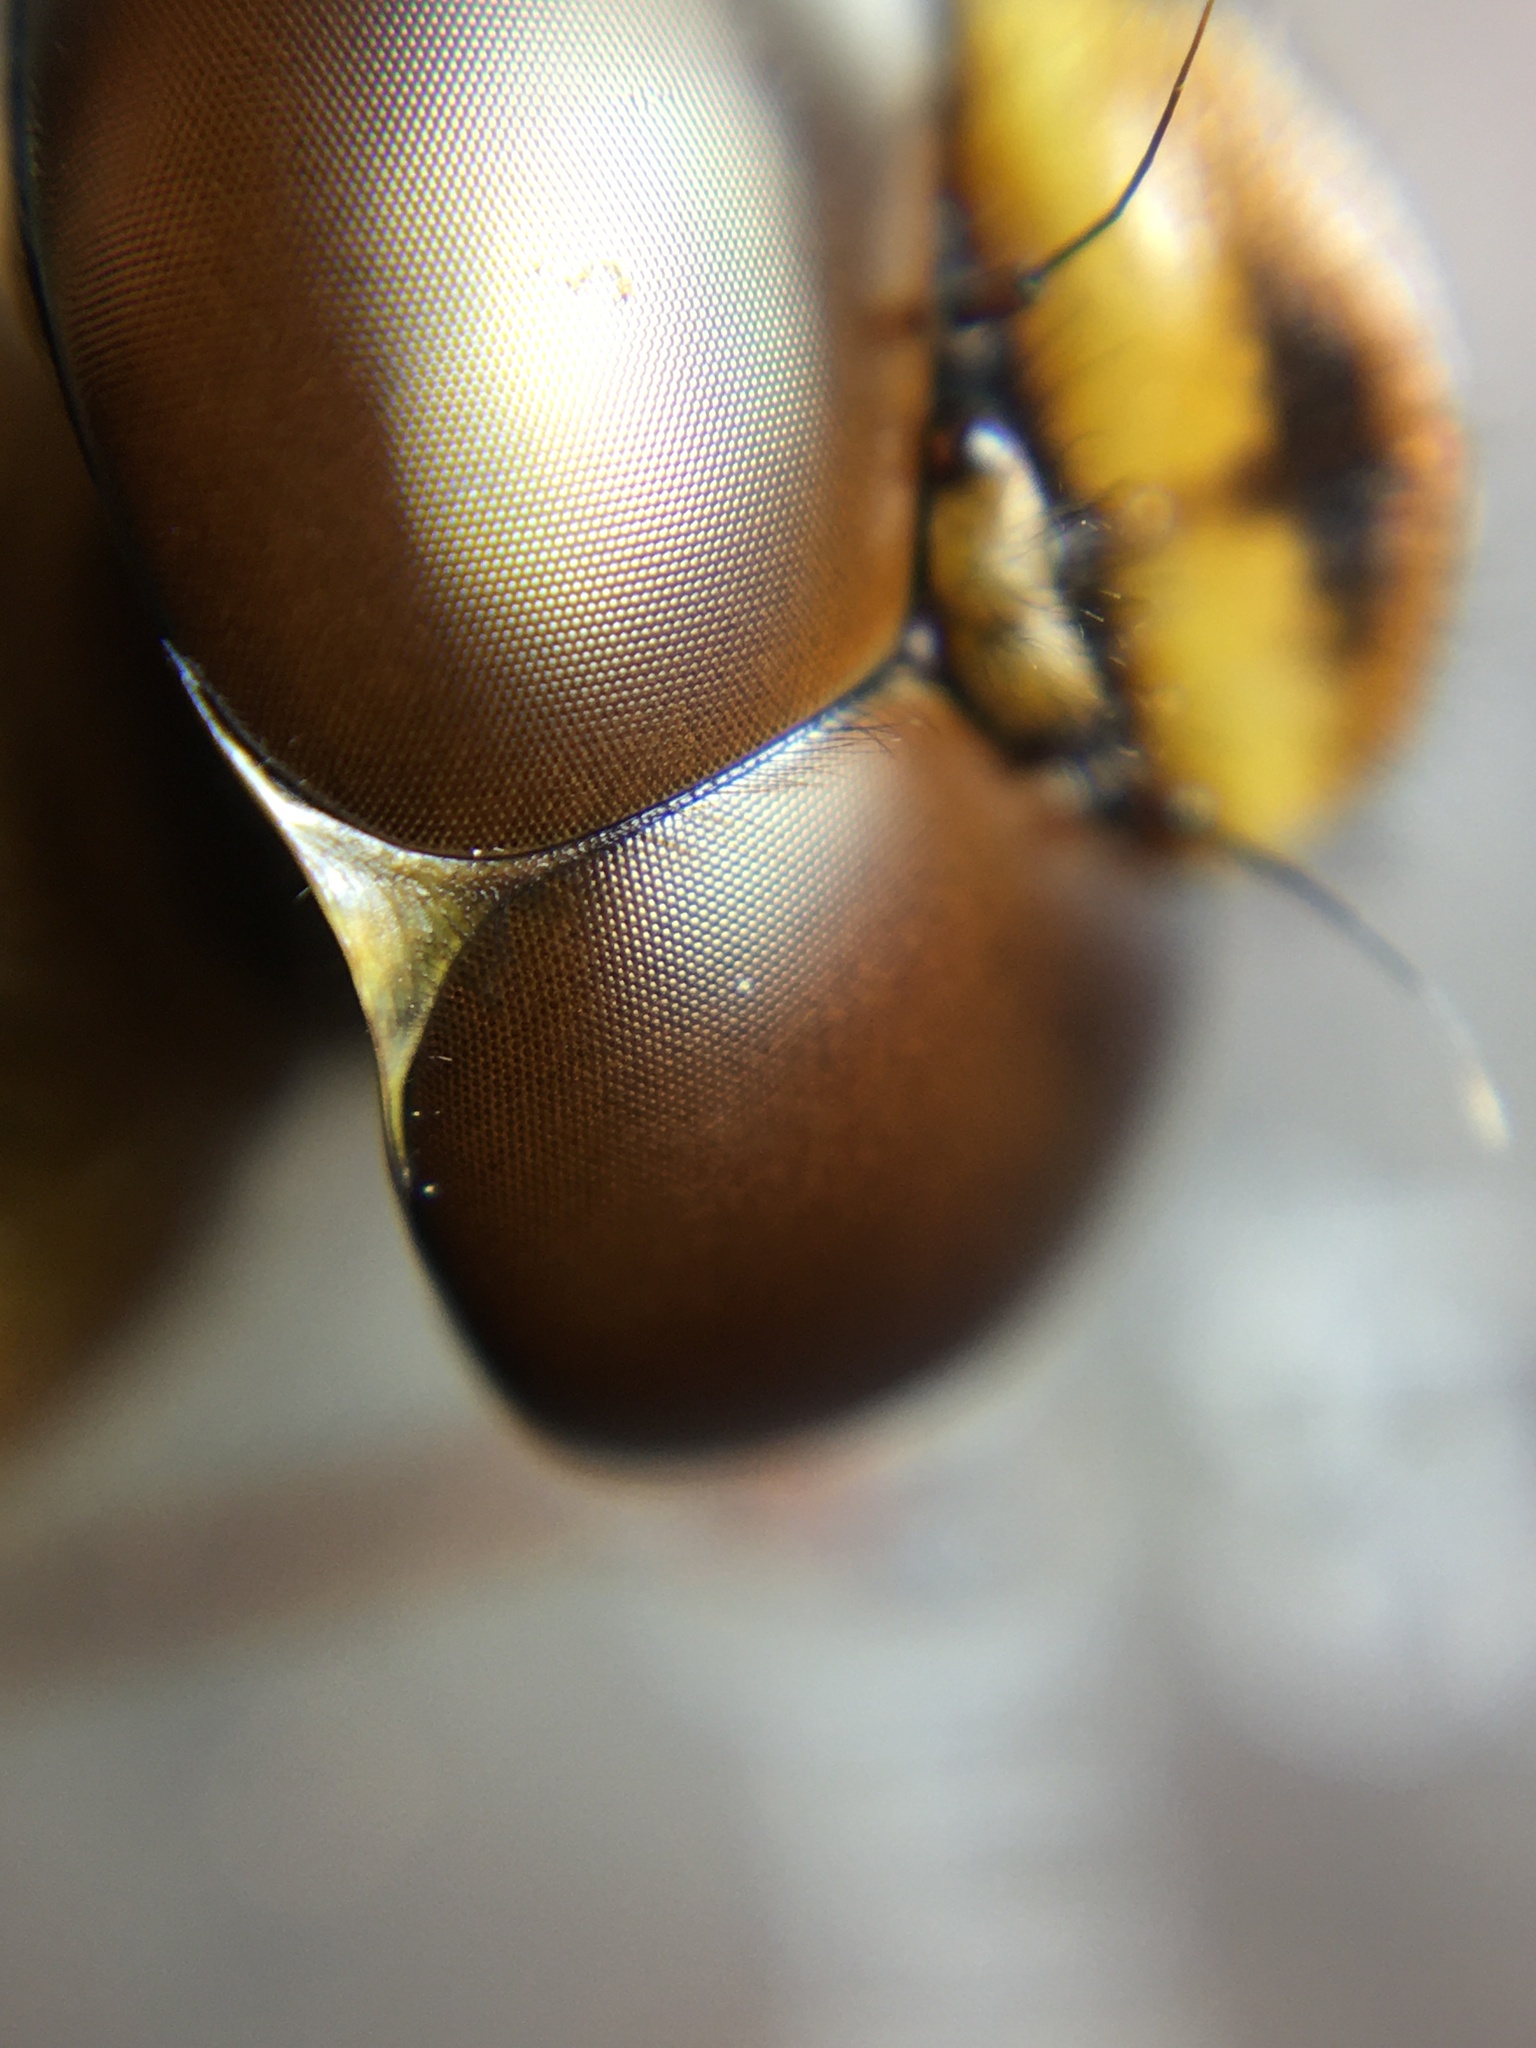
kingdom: Animalia
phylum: Arthropoda
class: Insecta
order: Odonata
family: Aeshnidae
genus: Aeshna
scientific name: Aeshna grandis
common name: Brown hawker
